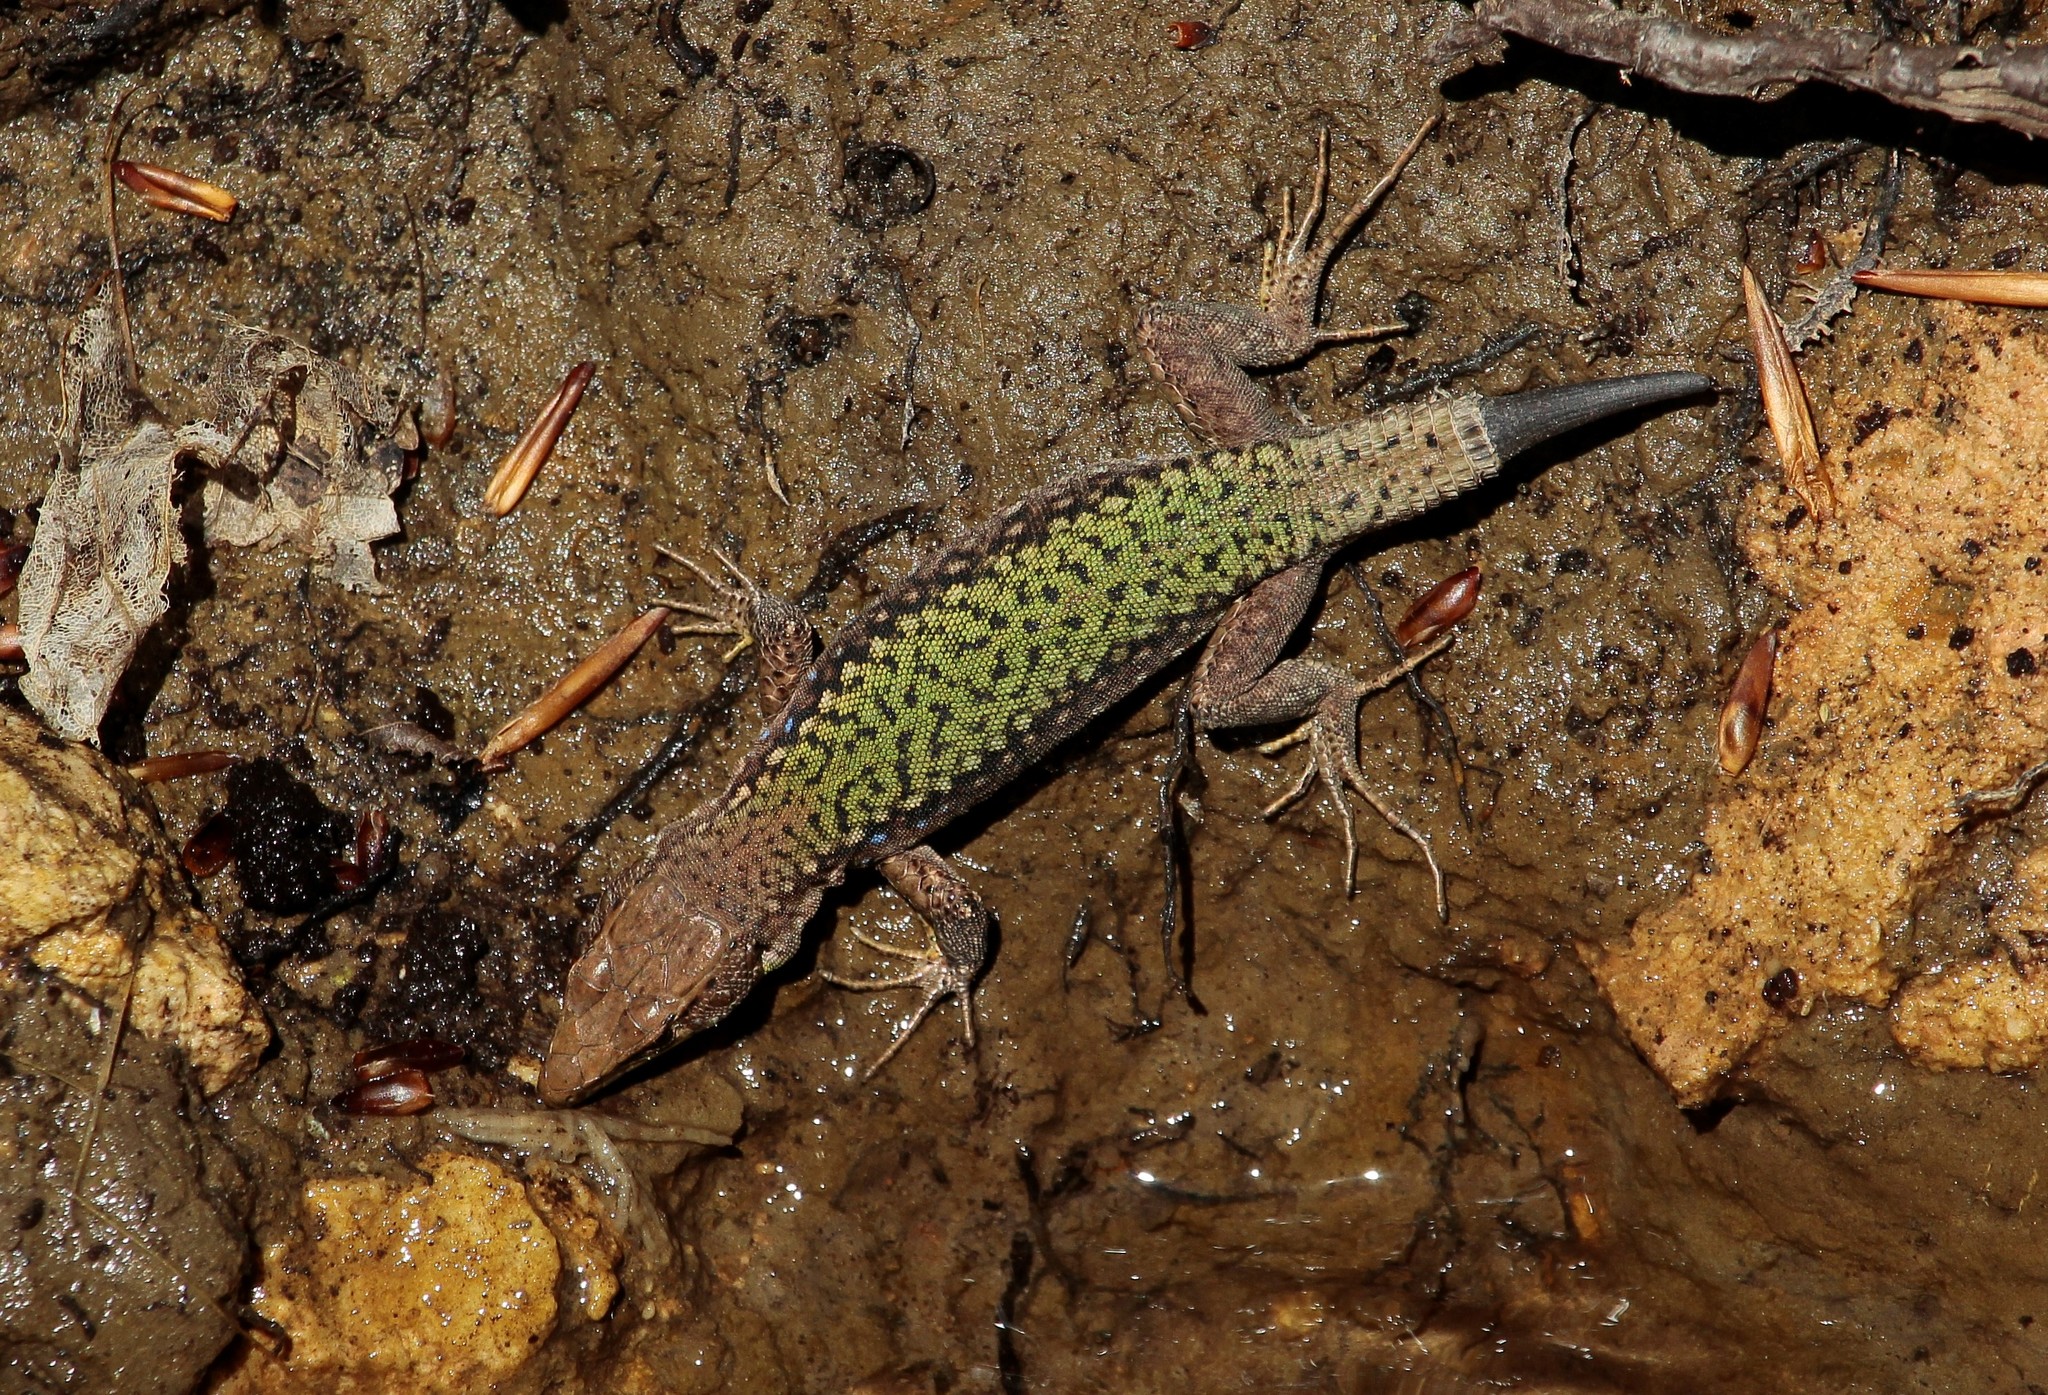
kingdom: Animalia
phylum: Chordata
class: Squamata
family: Lacertidae
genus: Darevskia
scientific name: Darevskia brauneri
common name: Brauner's rock lizard
